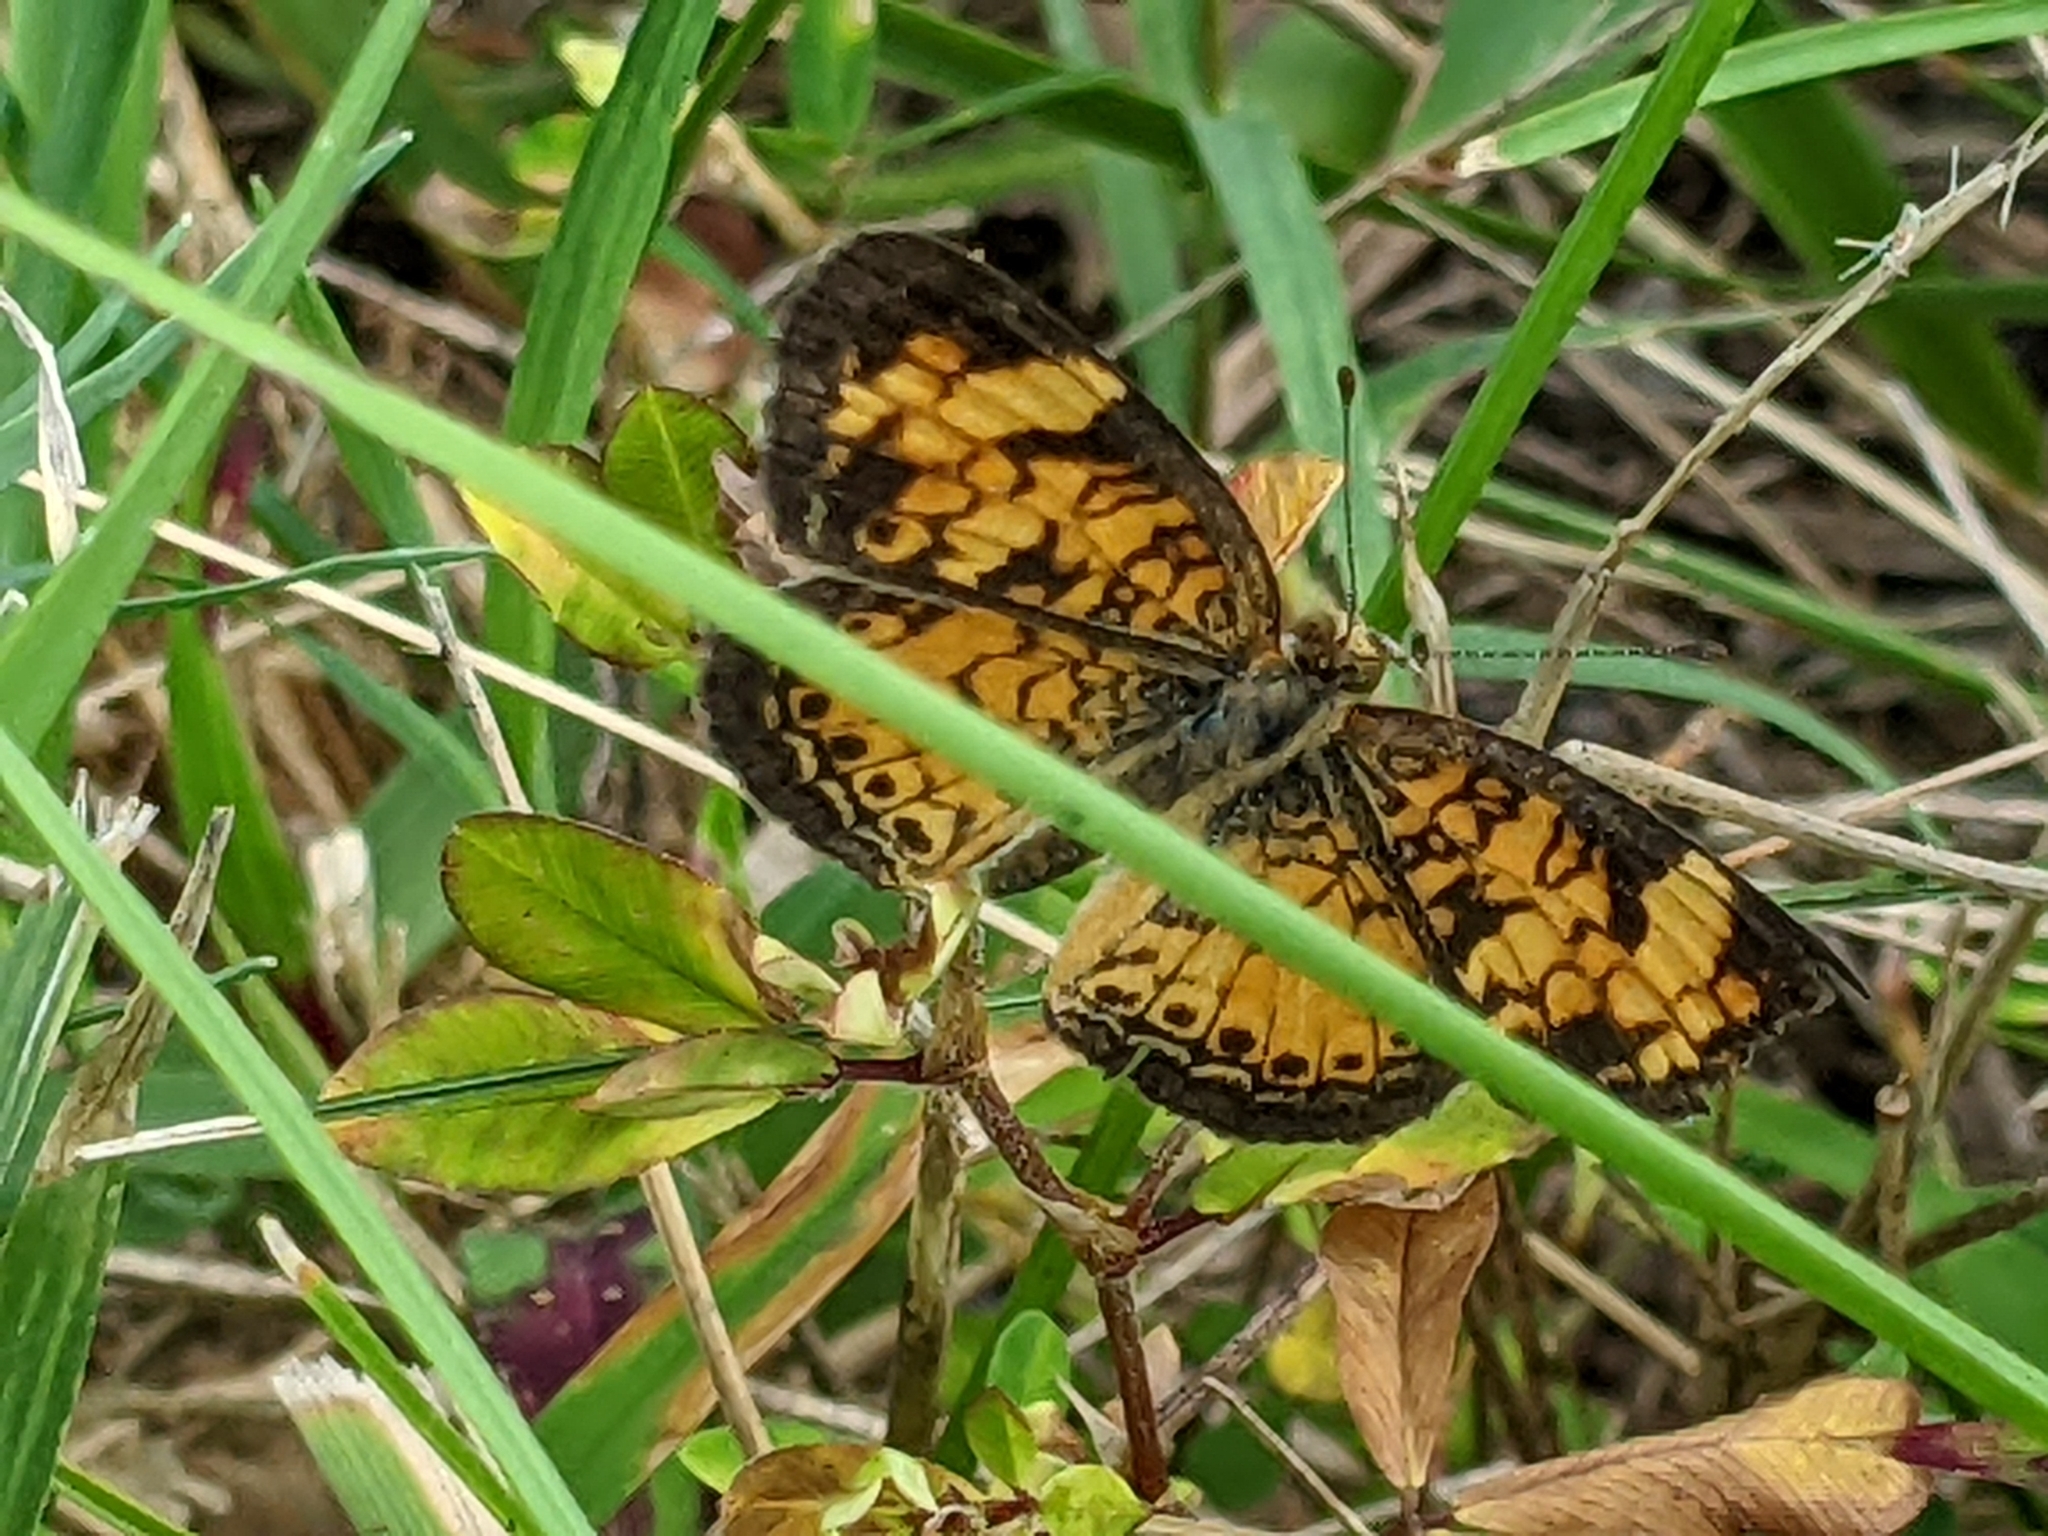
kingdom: Animalia
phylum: Arthropoda
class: Insecta
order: Lepidoptera
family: Nymphalidae
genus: Phyciodes
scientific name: Phyciodes tharos
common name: Pearl crescent
